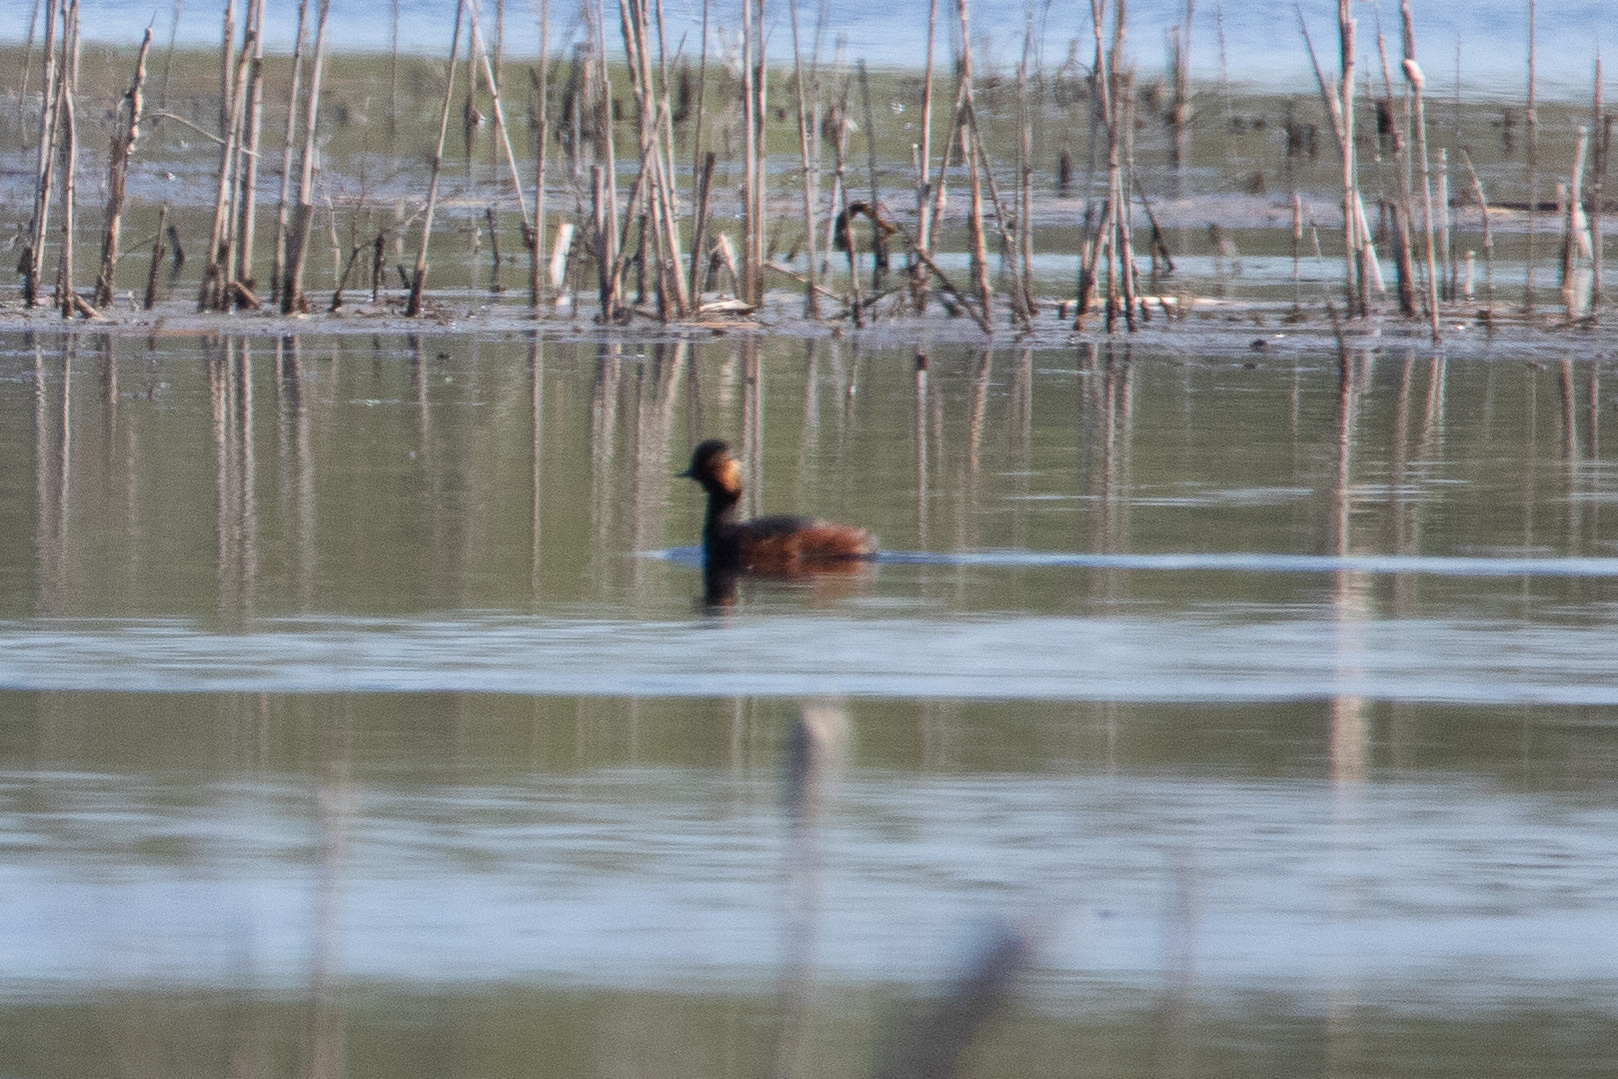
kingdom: Animalia
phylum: Chordata
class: Aves
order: Podicipediformes
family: Podicipedidae
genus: Podiceps
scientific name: Podiceps nigricollis
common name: Black-necked grebe
